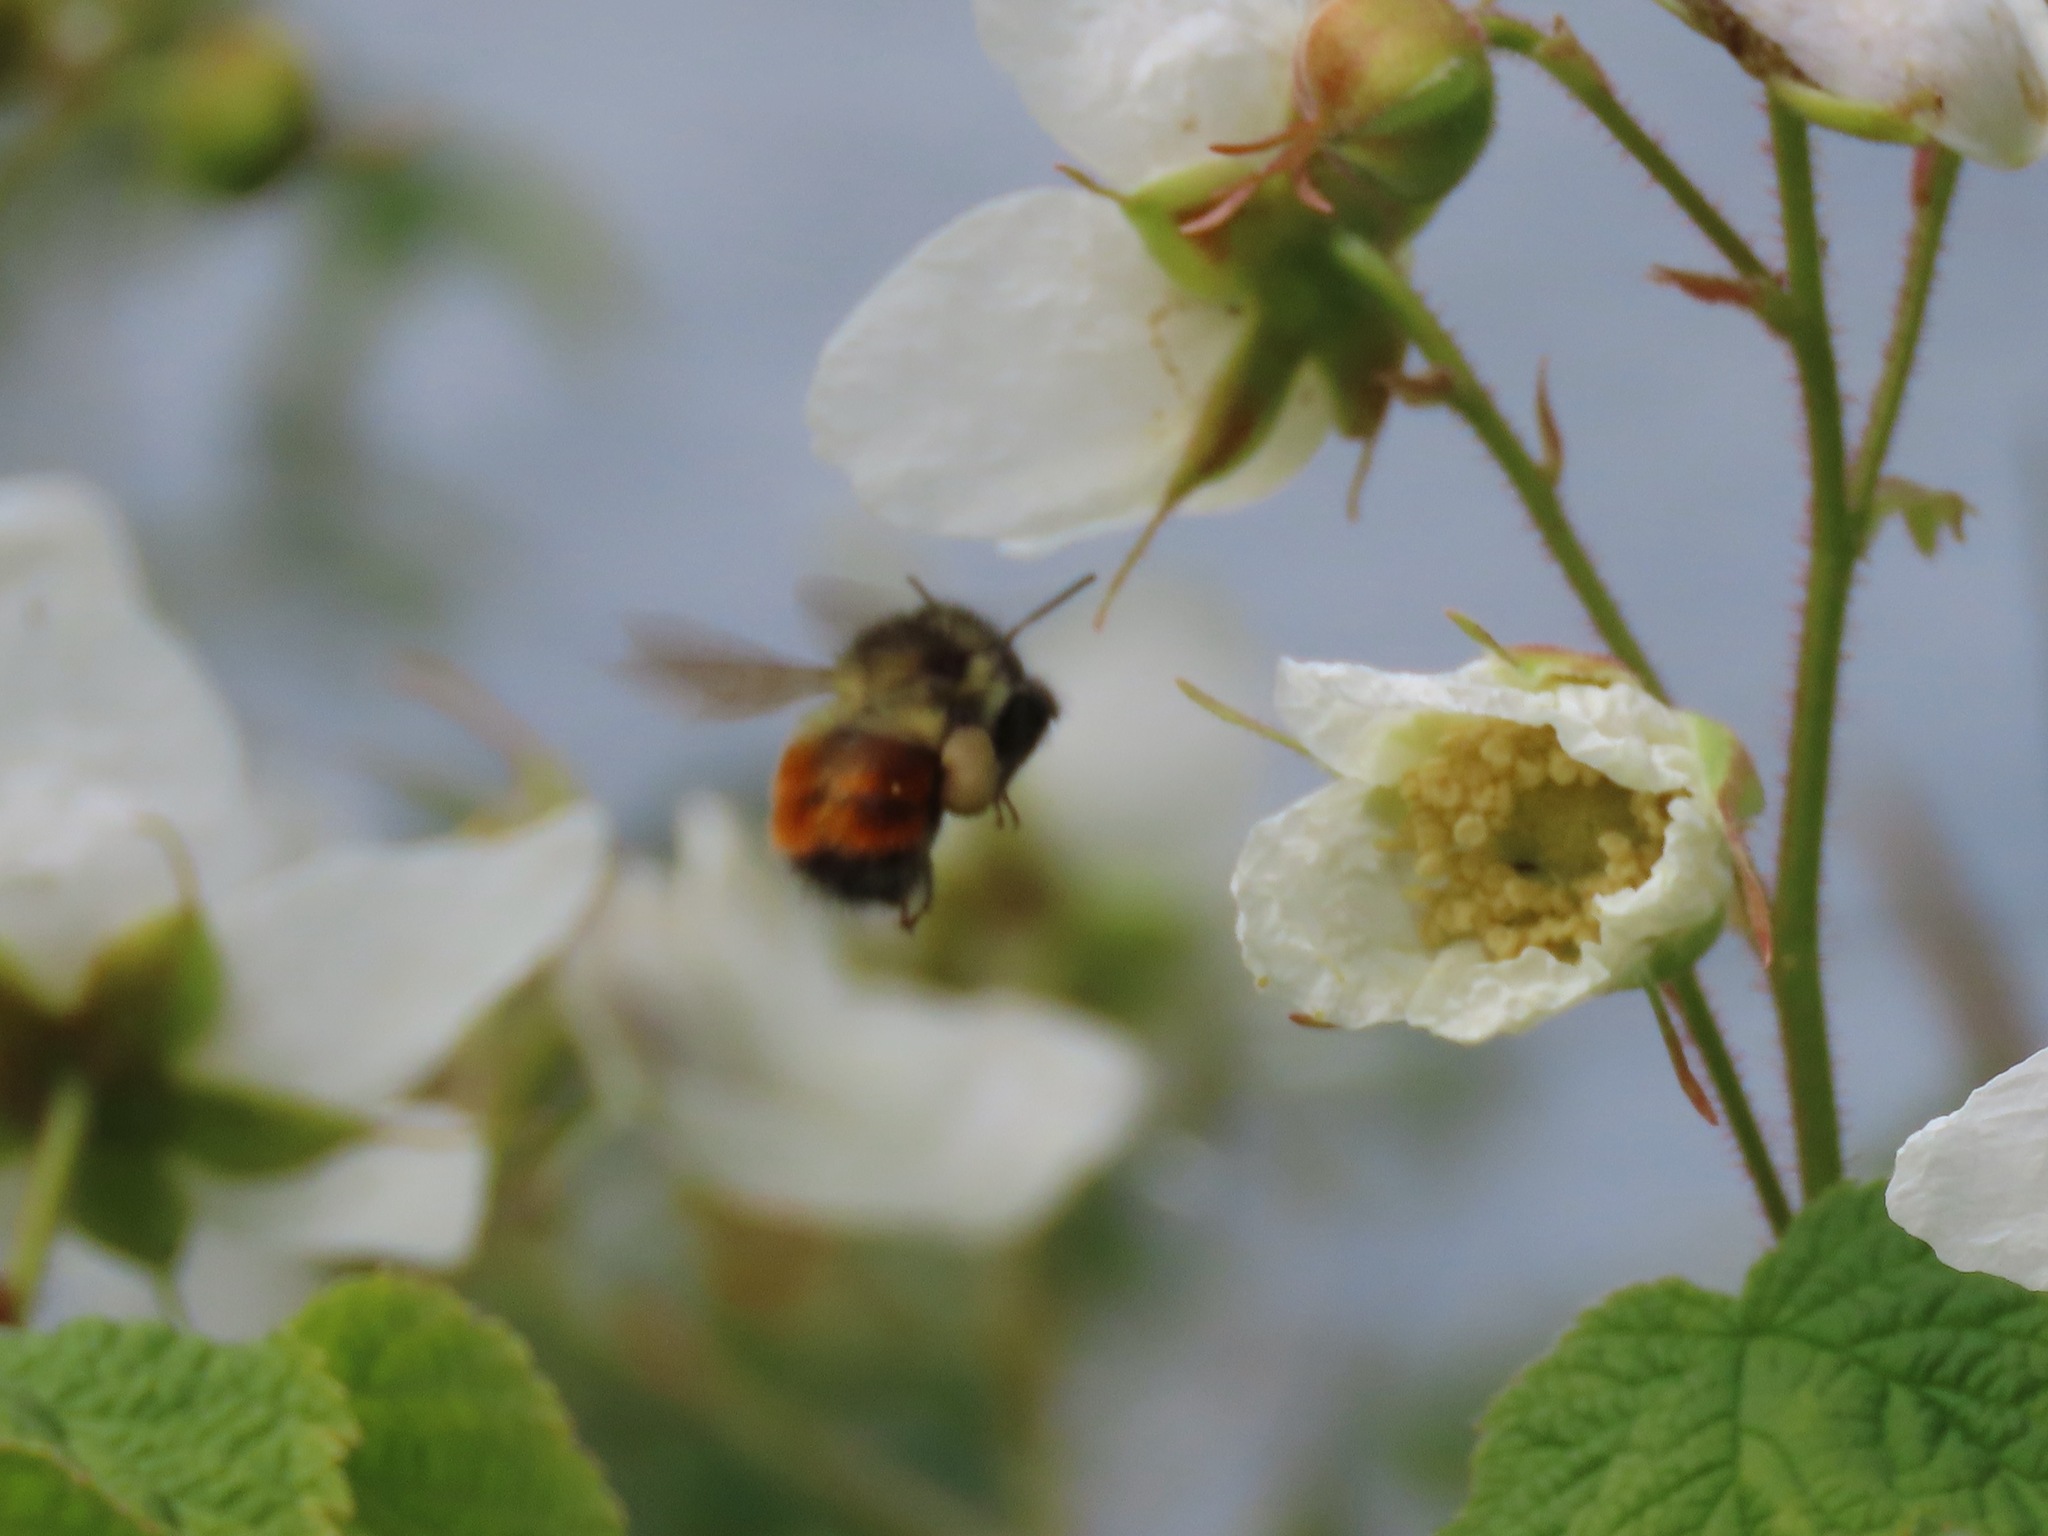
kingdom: Animalia
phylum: Arthropoda
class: Insecta
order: Hymenoptera
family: Apidae
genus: Bombus
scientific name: Bombus melanopygus
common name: Black tail bumble bee
